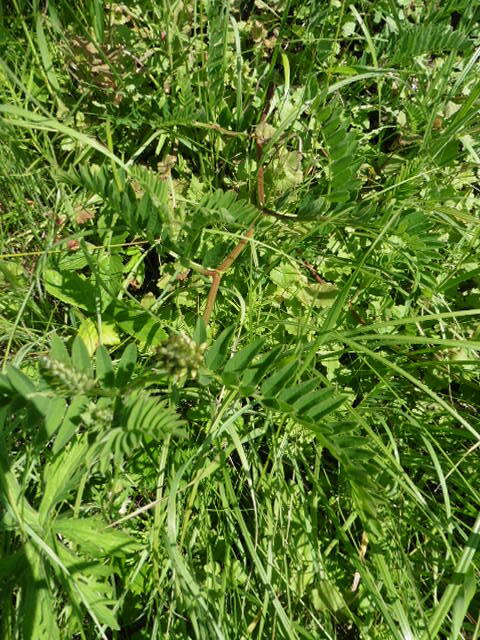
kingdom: Plantae
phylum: Tracheophyta
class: Magnoliopsida
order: Fabales
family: Fabaceae
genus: Astragalus
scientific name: Astragalus cicer
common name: Chick-pea milk-vetch
